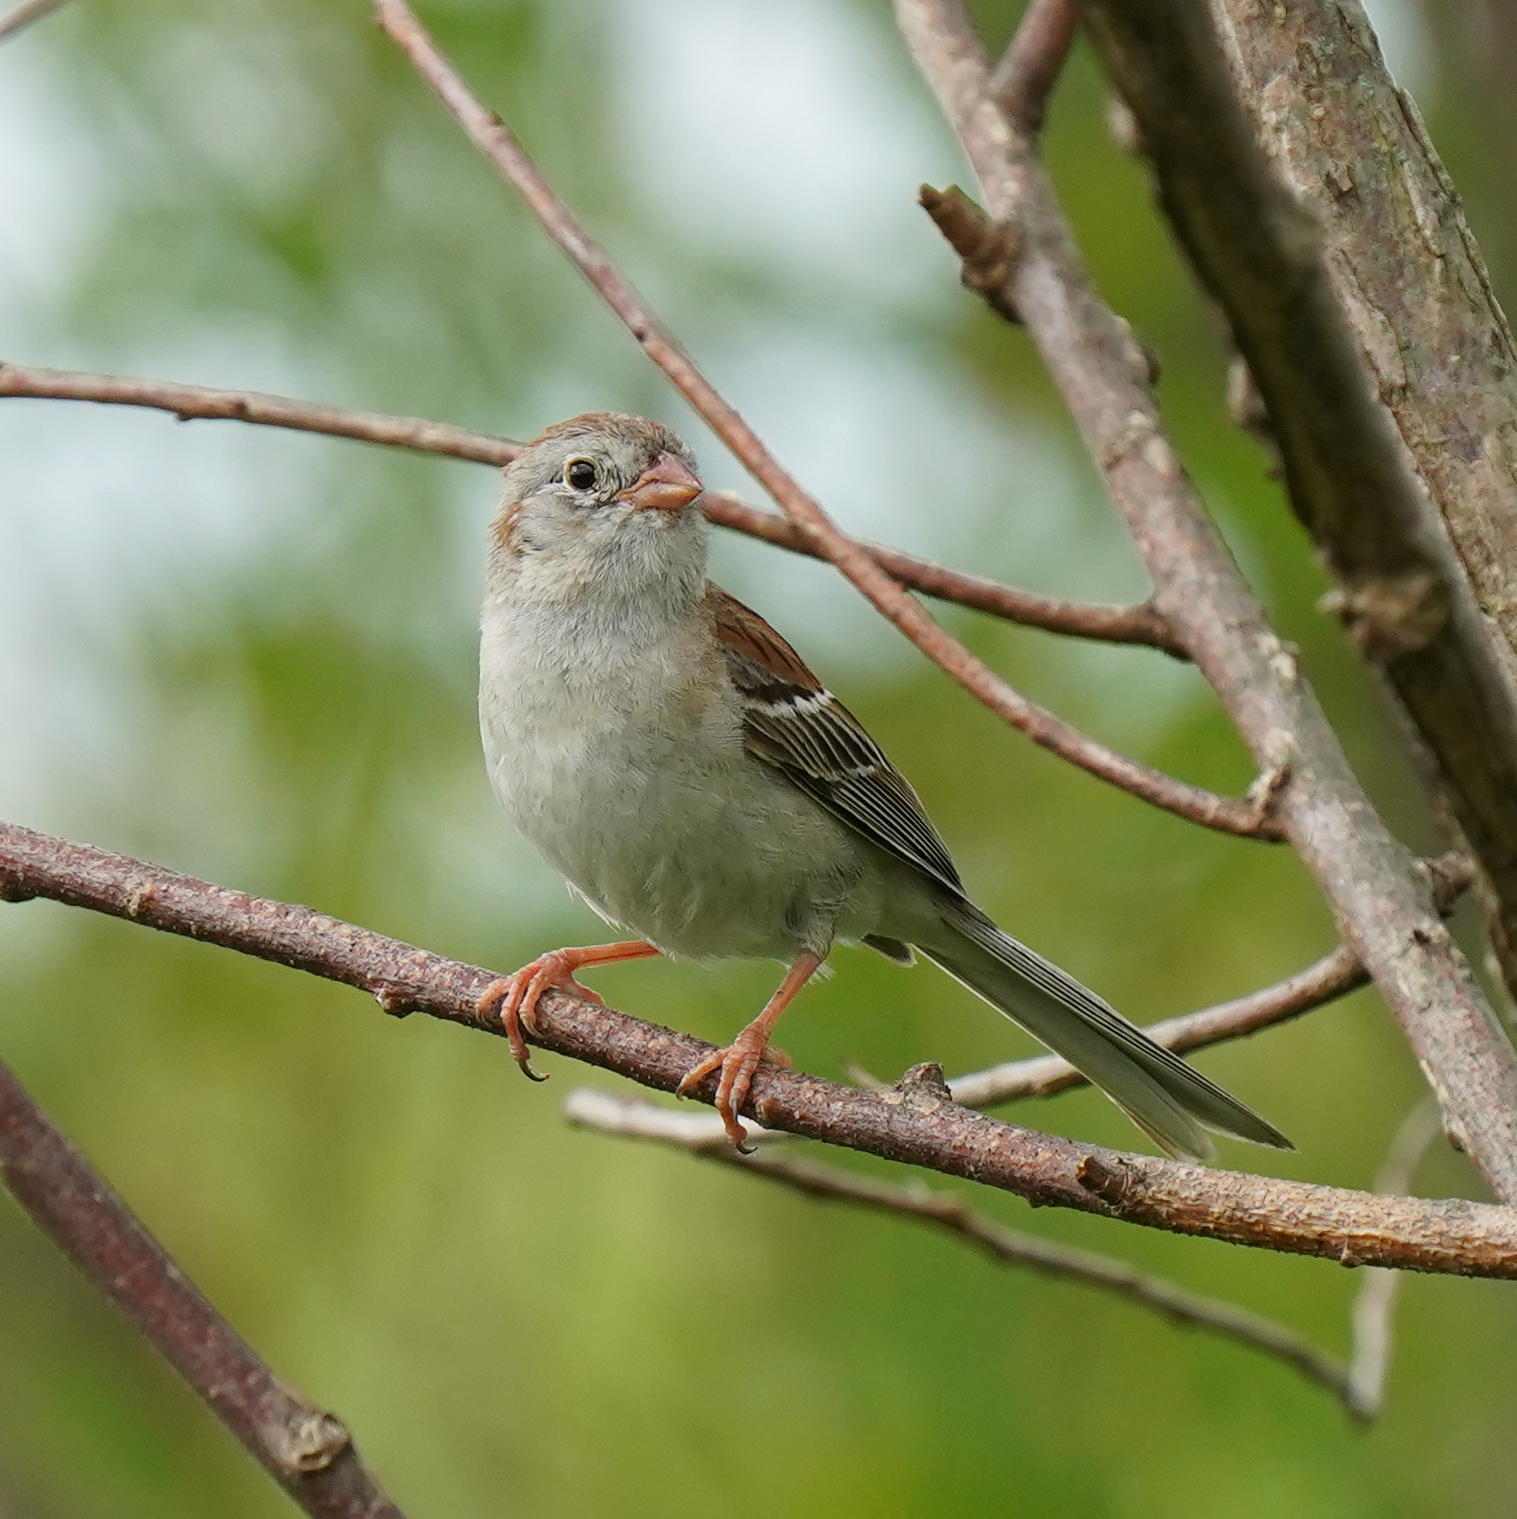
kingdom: Animalia
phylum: Chordata
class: Aves
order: Passeriformes
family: Passerellidae
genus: Spizella
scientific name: Spizella pusilla
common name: Field sparrow
